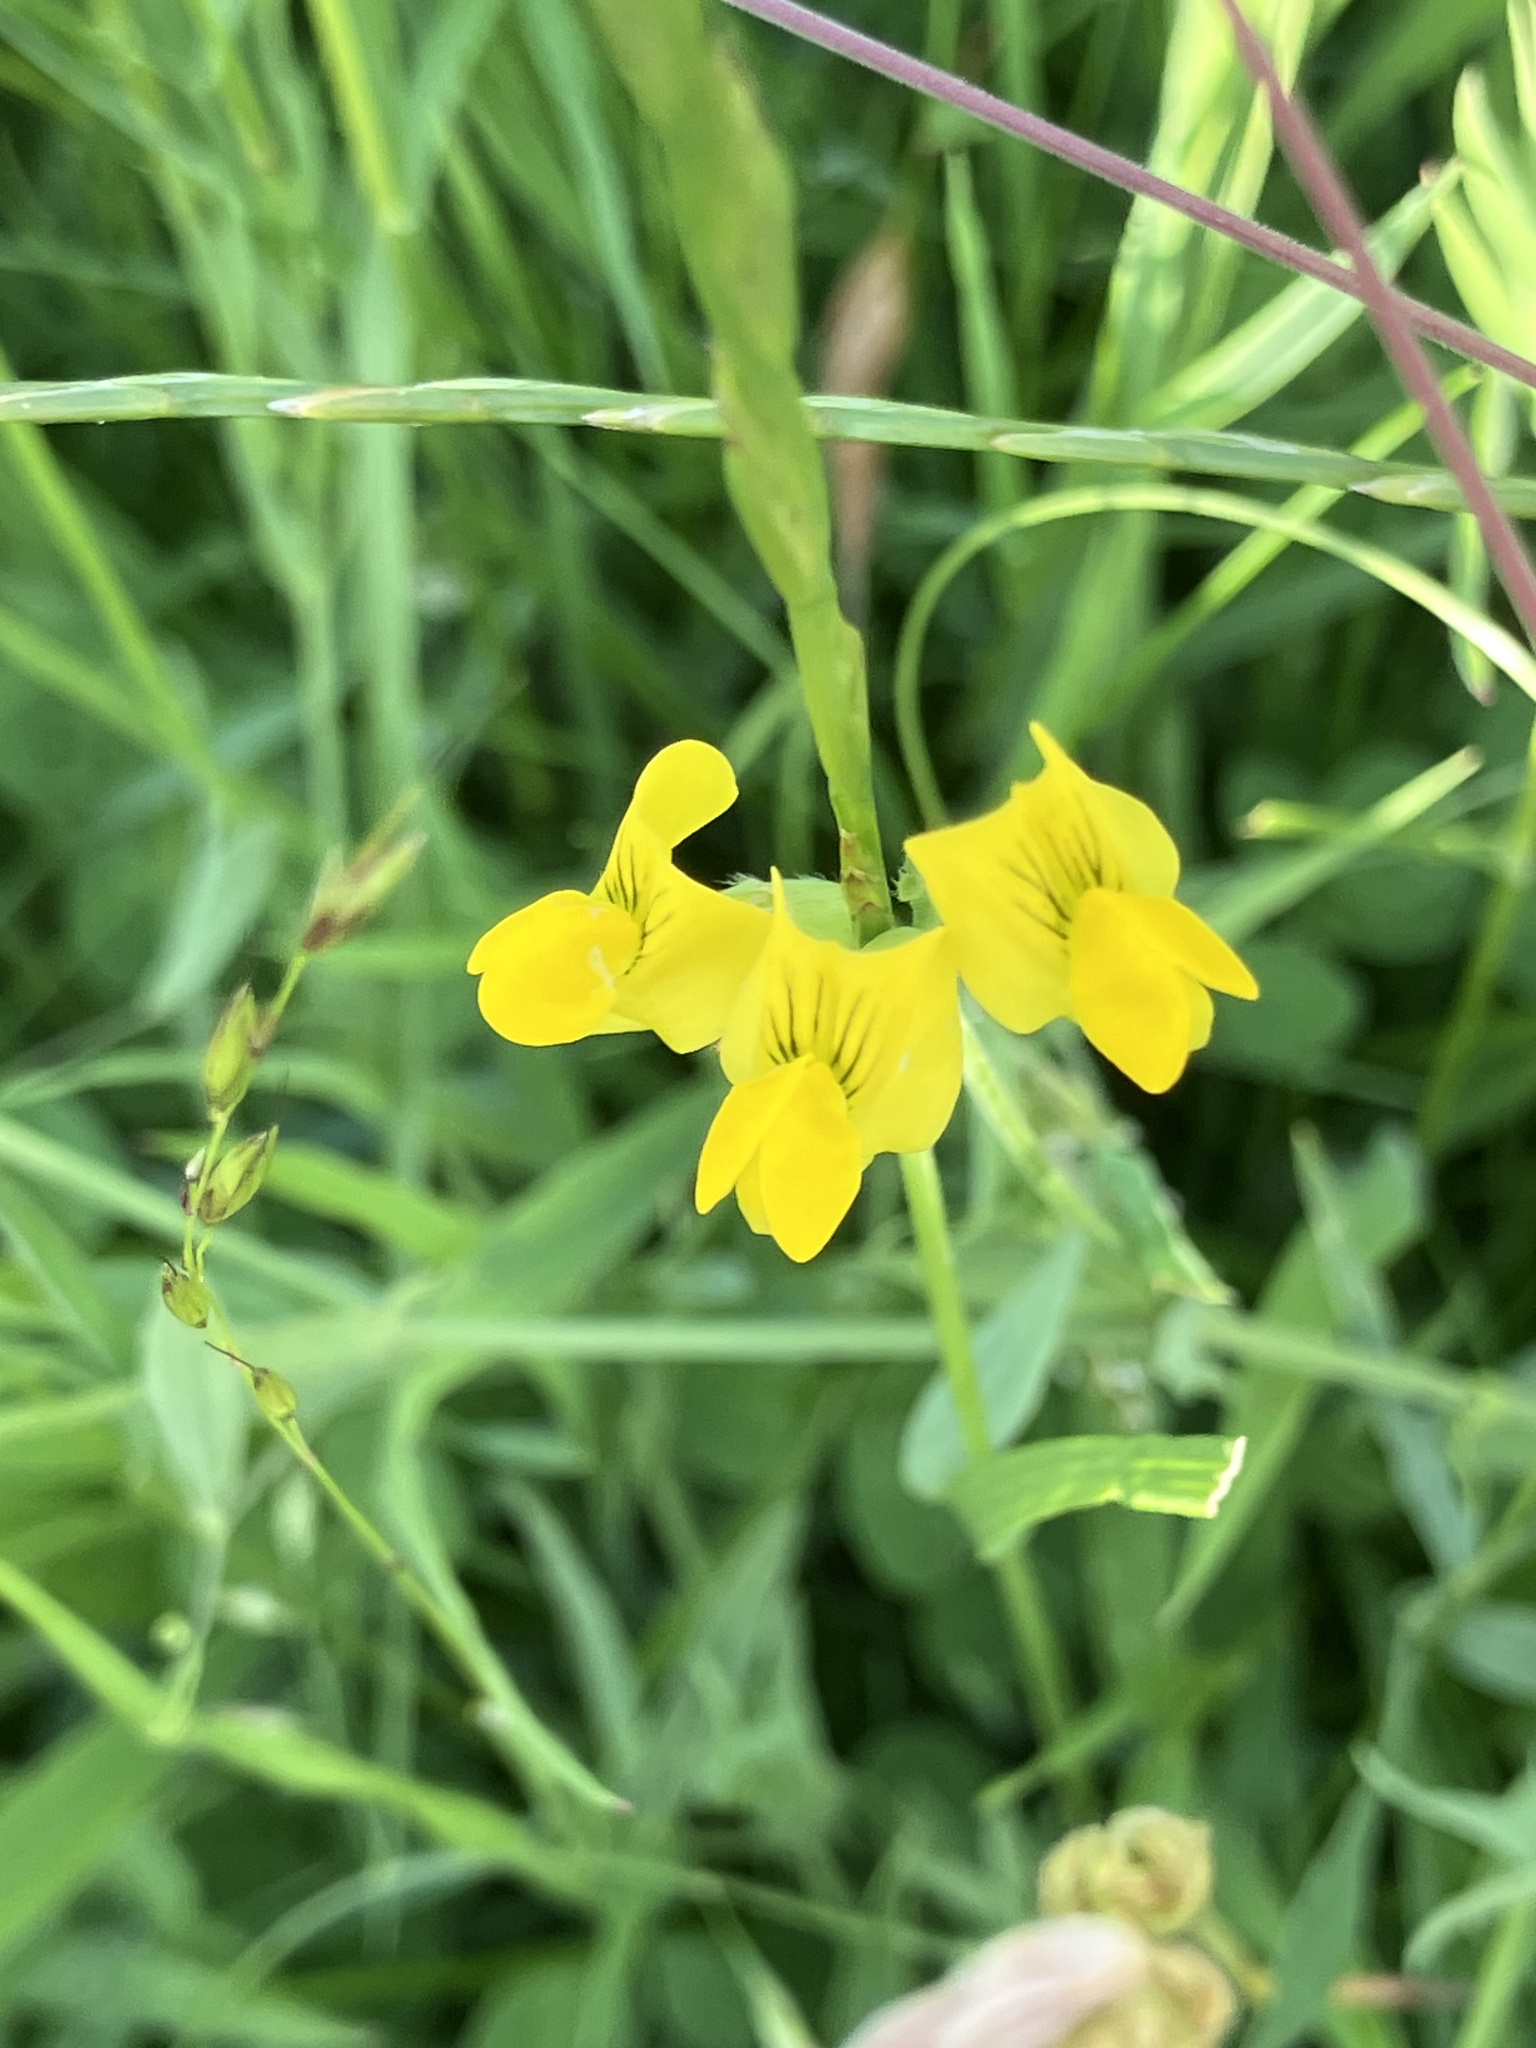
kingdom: Plantae
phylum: Tracheophyta
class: Magnoliopsida
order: Fabales
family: Fabaceae
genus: Lathyrus
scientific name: Lathyrus pratensis
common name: Meadow vetchling
